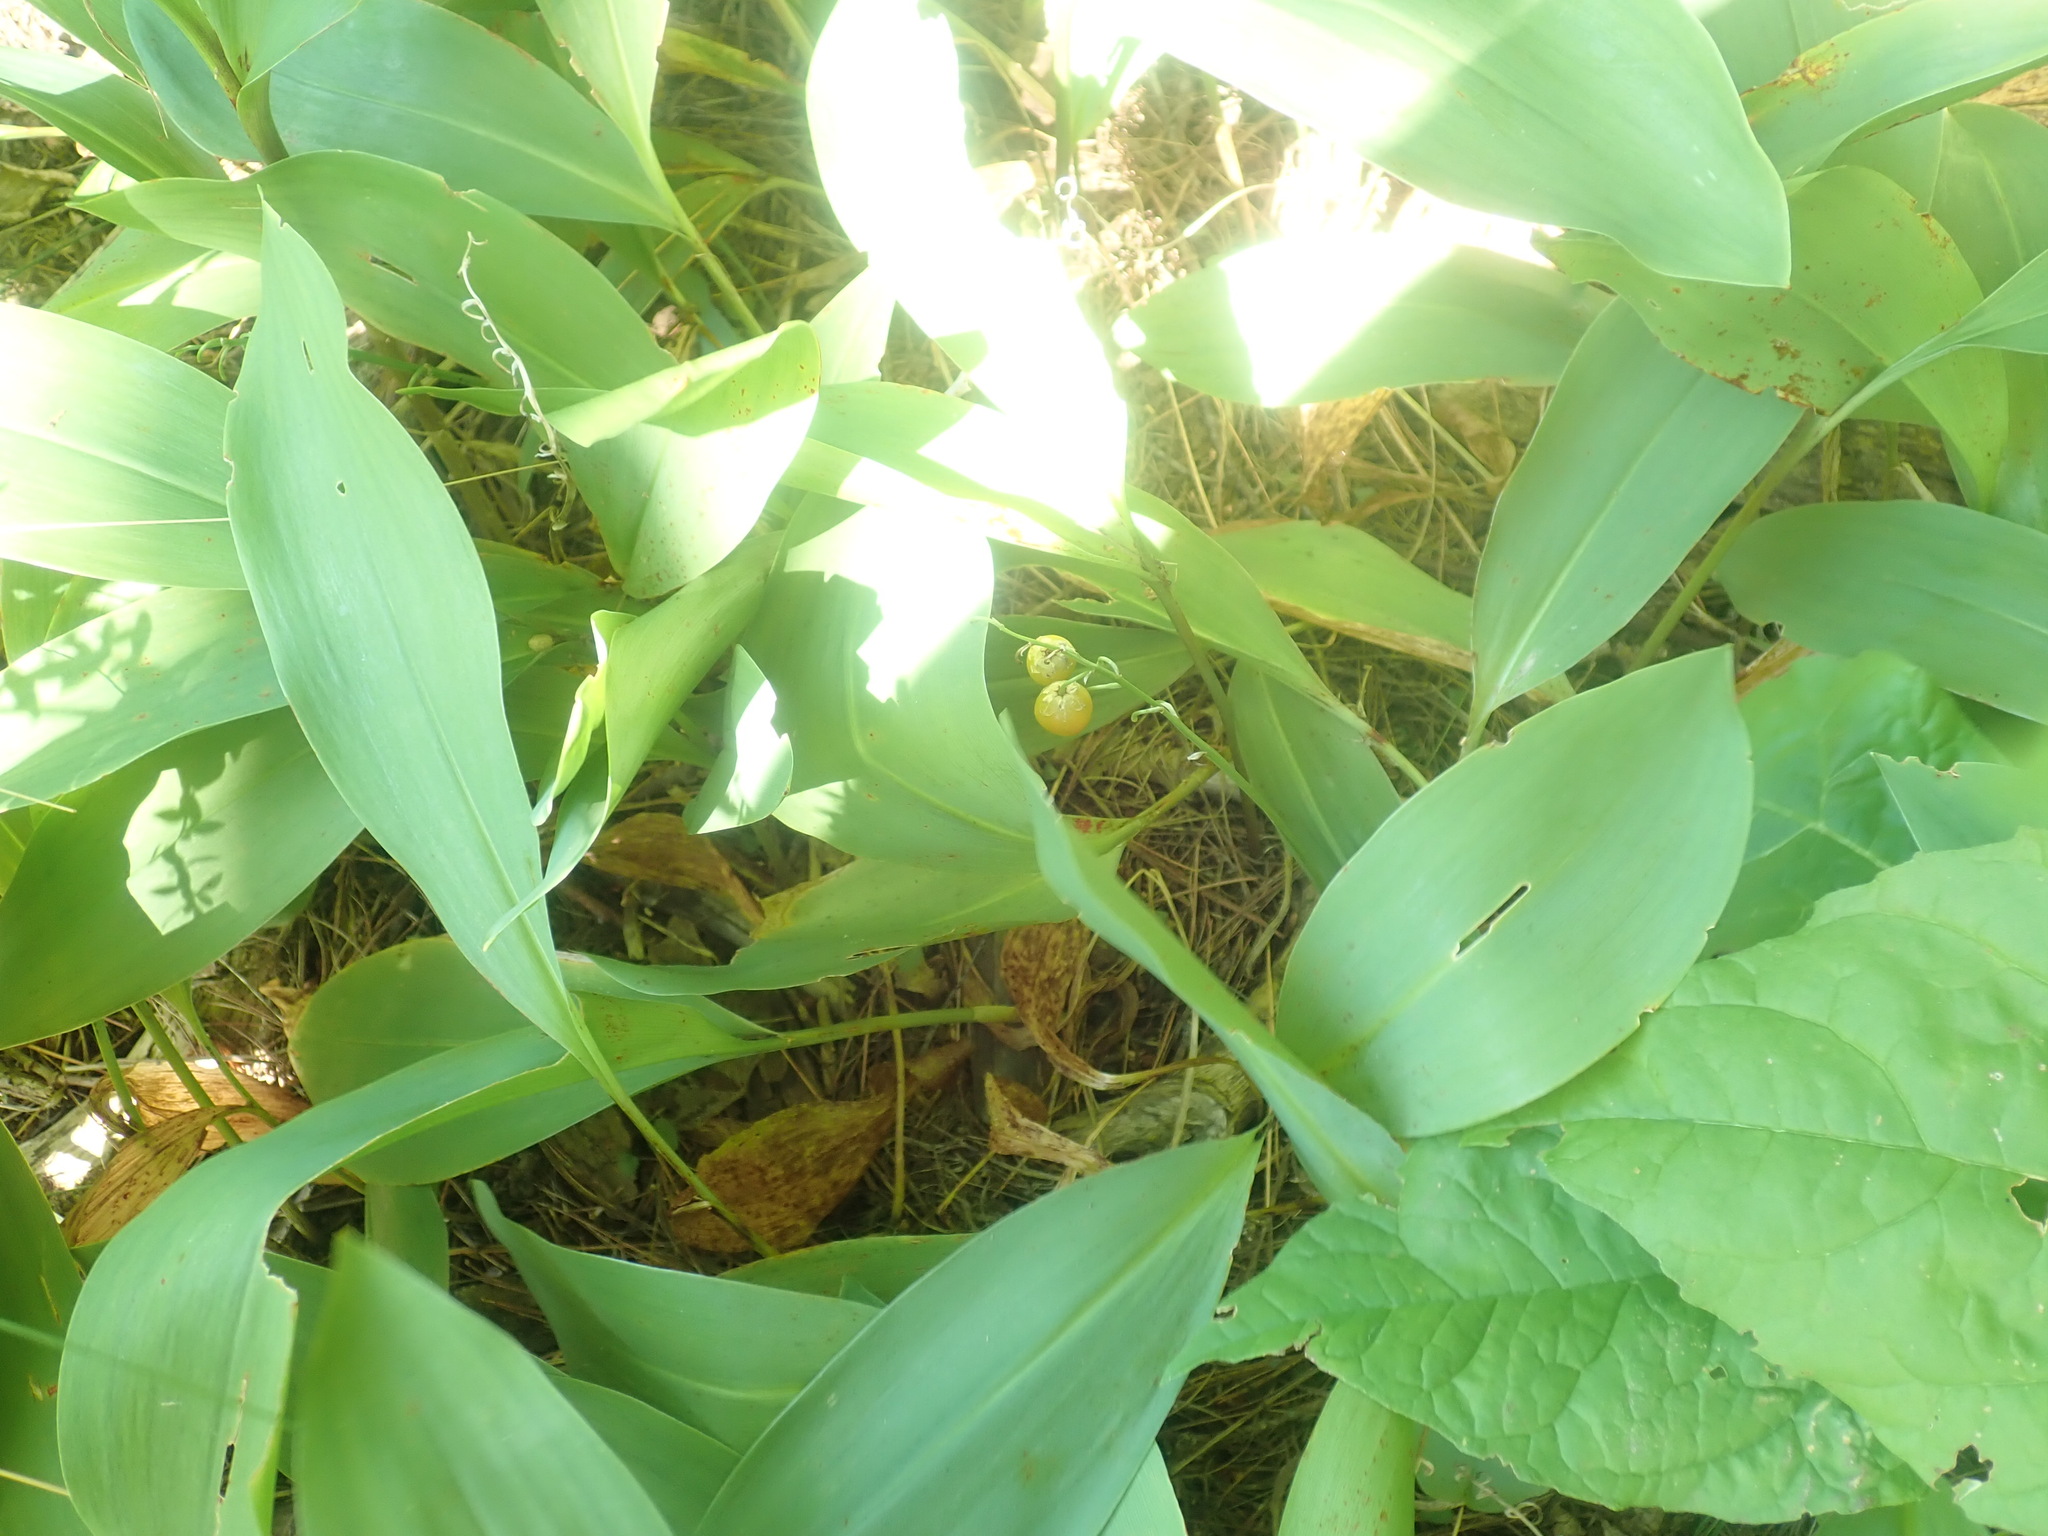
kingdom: Plantae
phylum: Tracheophyta
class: Liliopsida
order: Asparagales
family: Asparagaceae
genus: Convallaria
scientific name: Convallaria majalis
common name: Lily-of-the-valley
